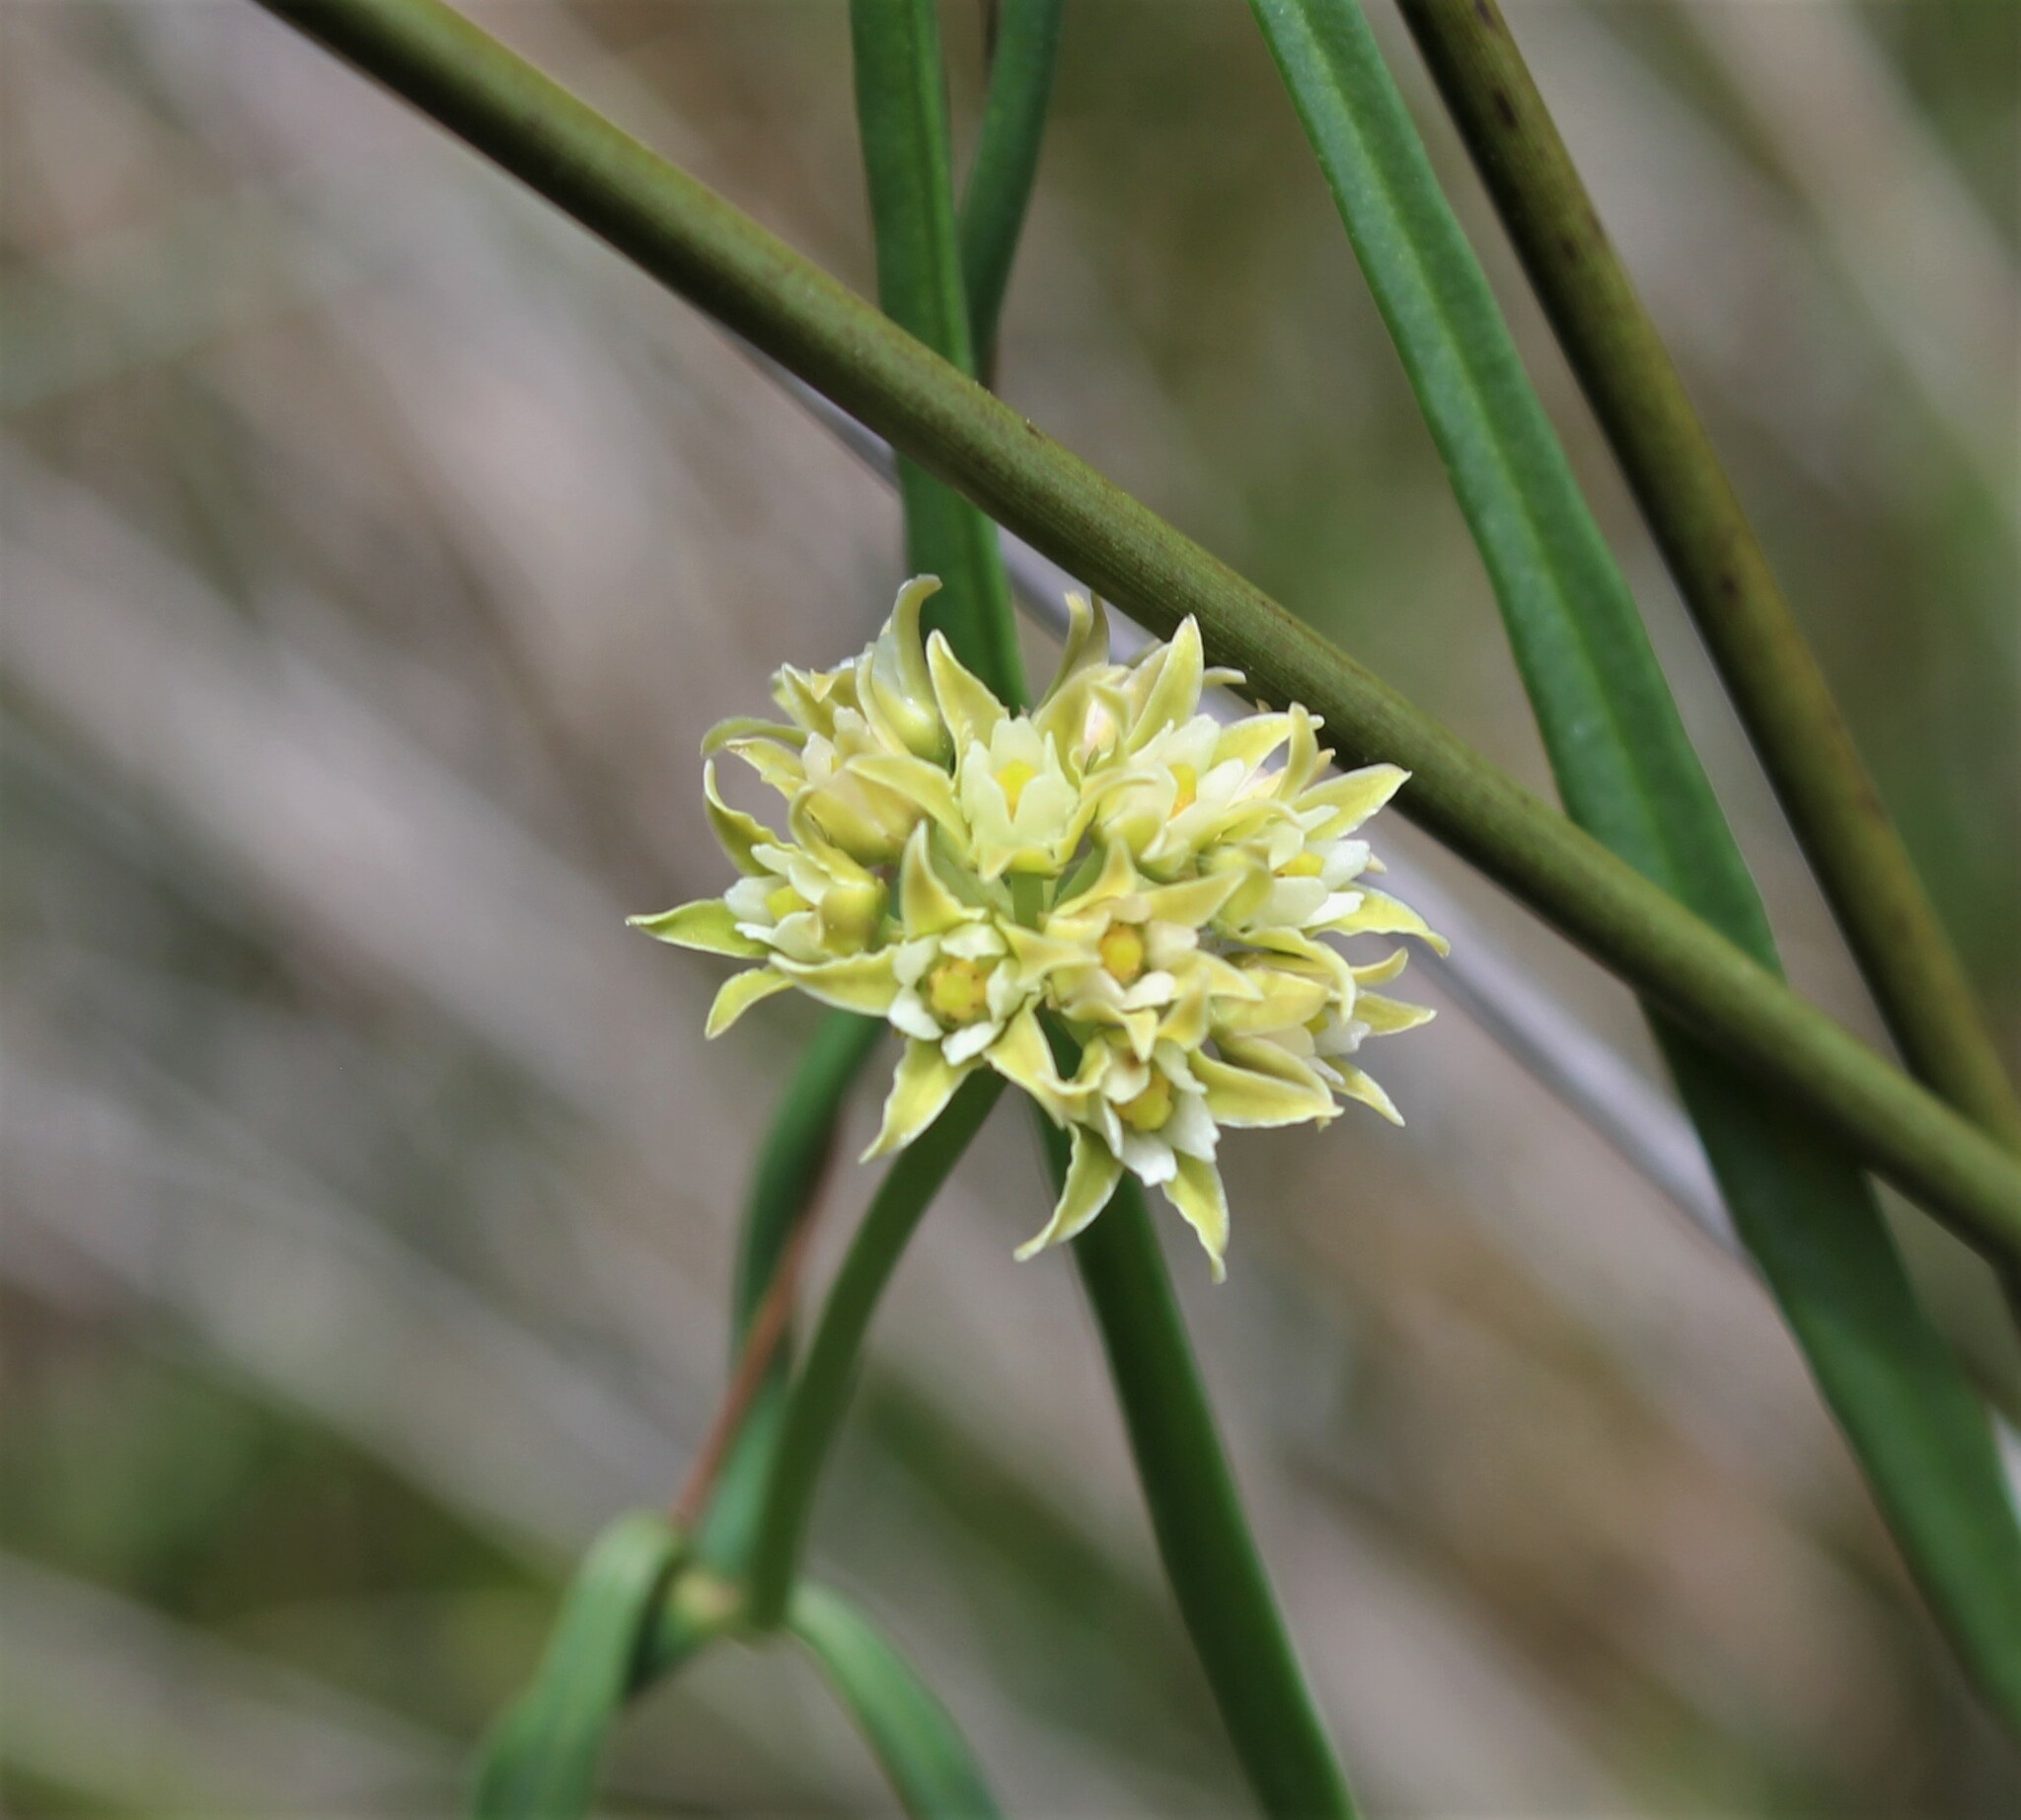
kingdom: Plantae
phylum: Tracheophyta
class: Magnoliopsida
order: Gentianales
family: Apocynaceae
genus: Pattalias
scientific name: Pattalias
